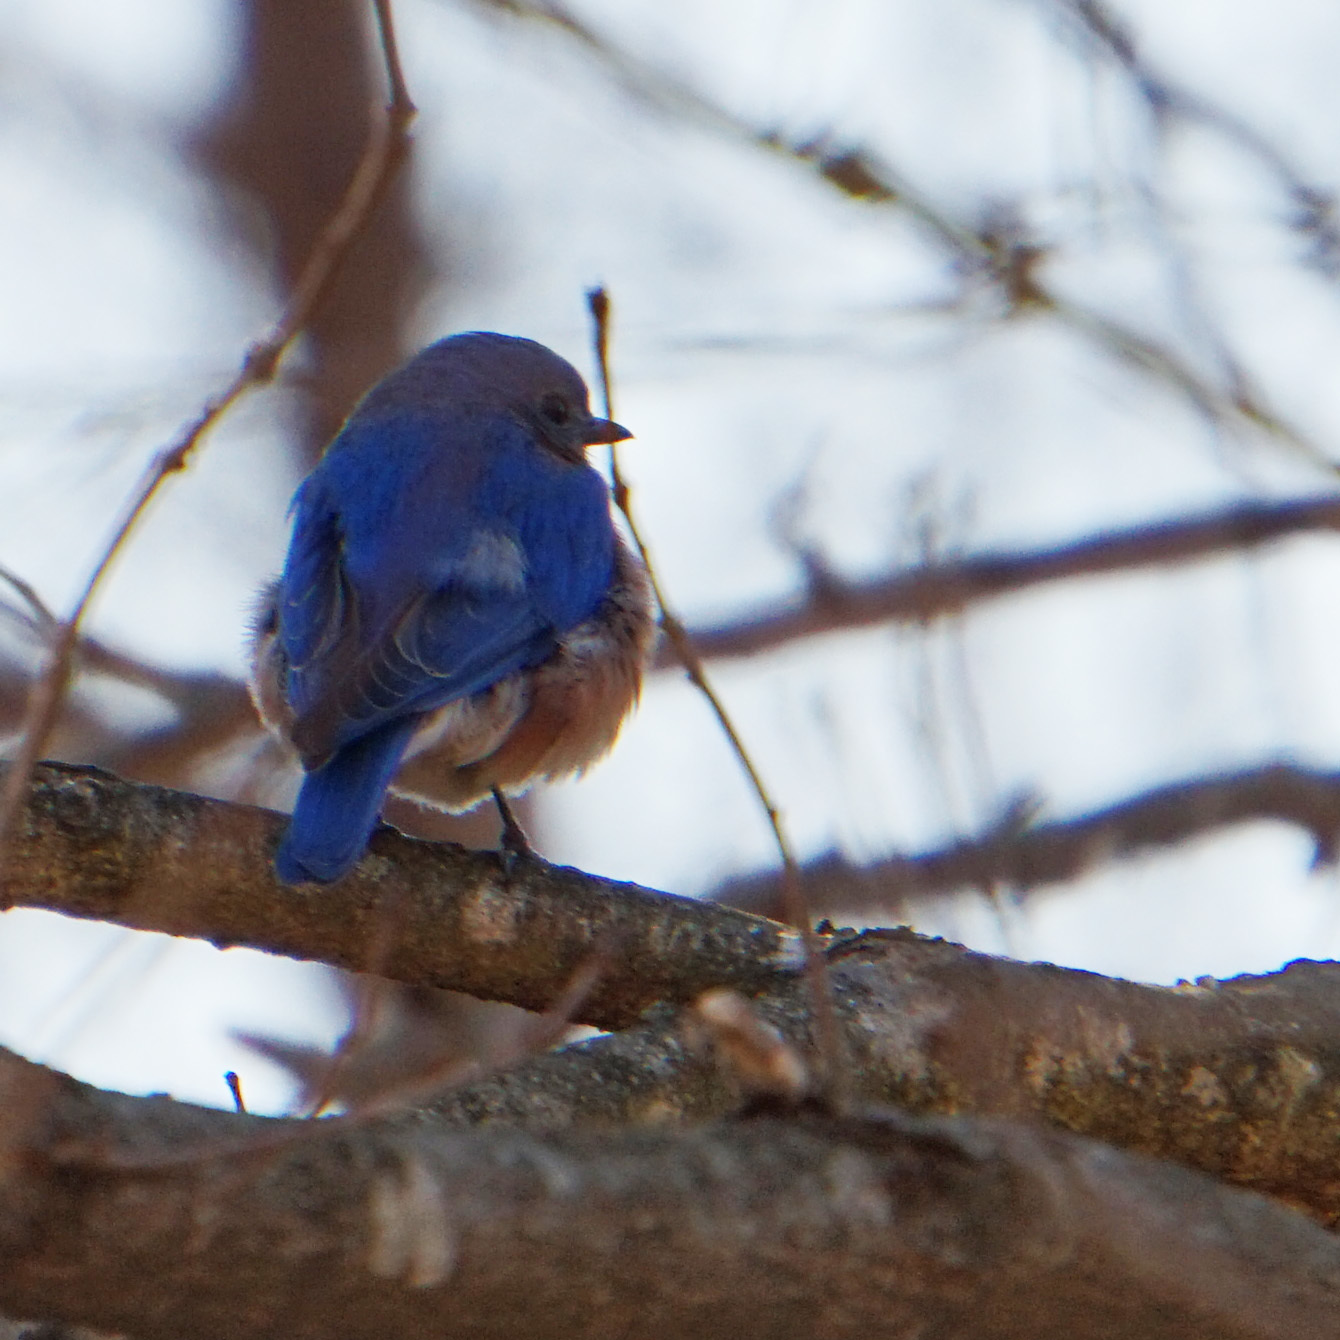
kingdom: Animalia
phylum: Chordata
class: Aves
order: Passeriformes
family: Turdidae
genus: Sialia
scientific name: Sialia sialis
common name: Eastern bluebird
